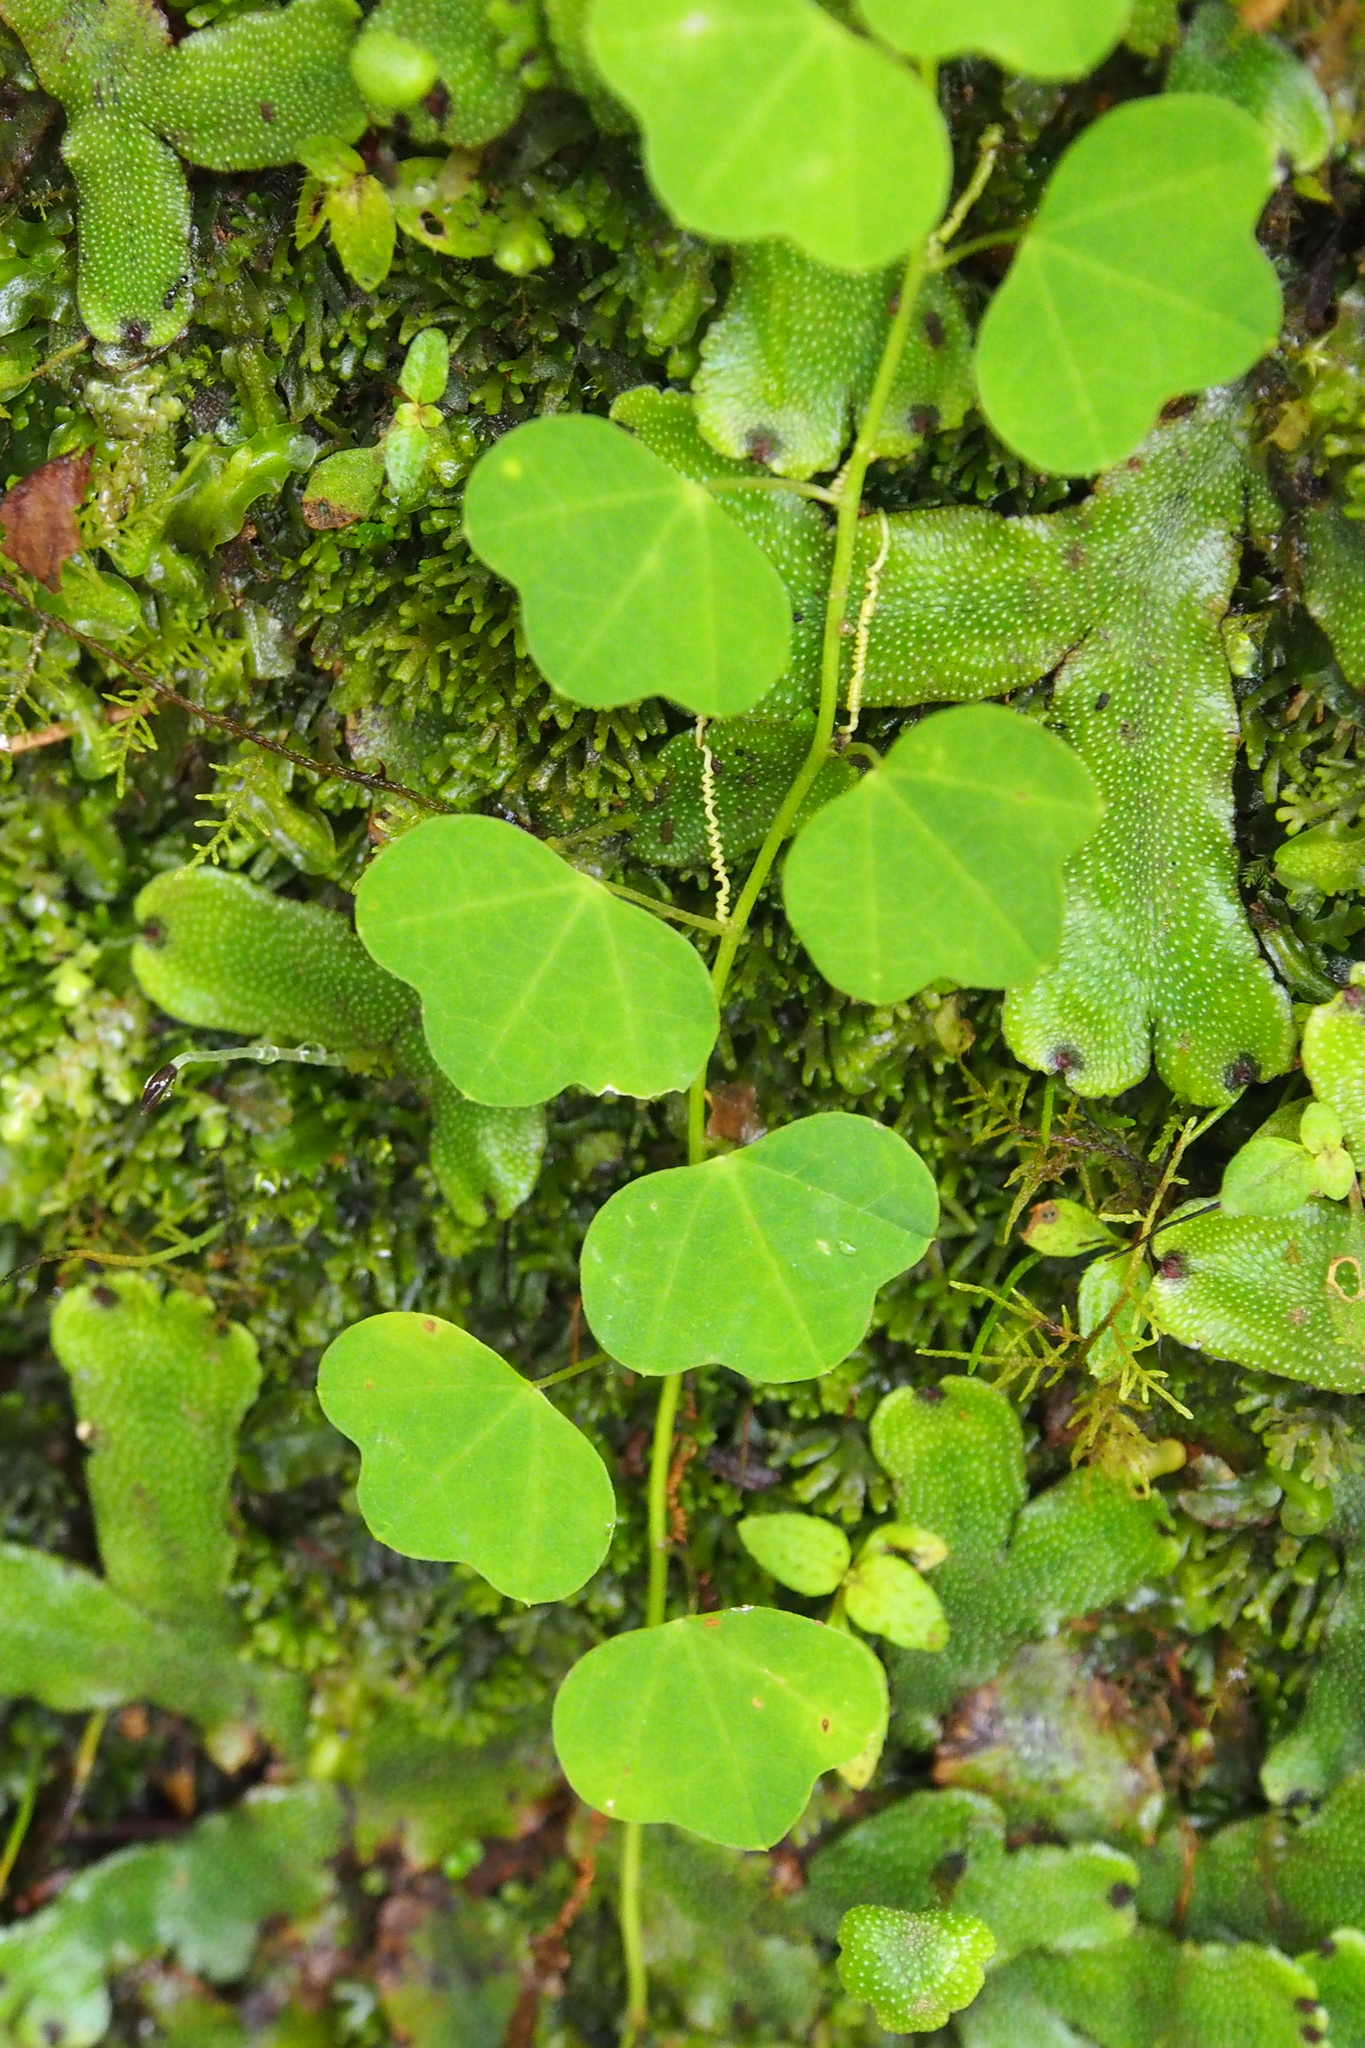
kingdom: Plantae
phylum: Tracheophyta
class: Magnoliopsida
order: Malpighiales
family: Passifloraceae
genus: Passiflora
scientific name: Passiflora filipes
